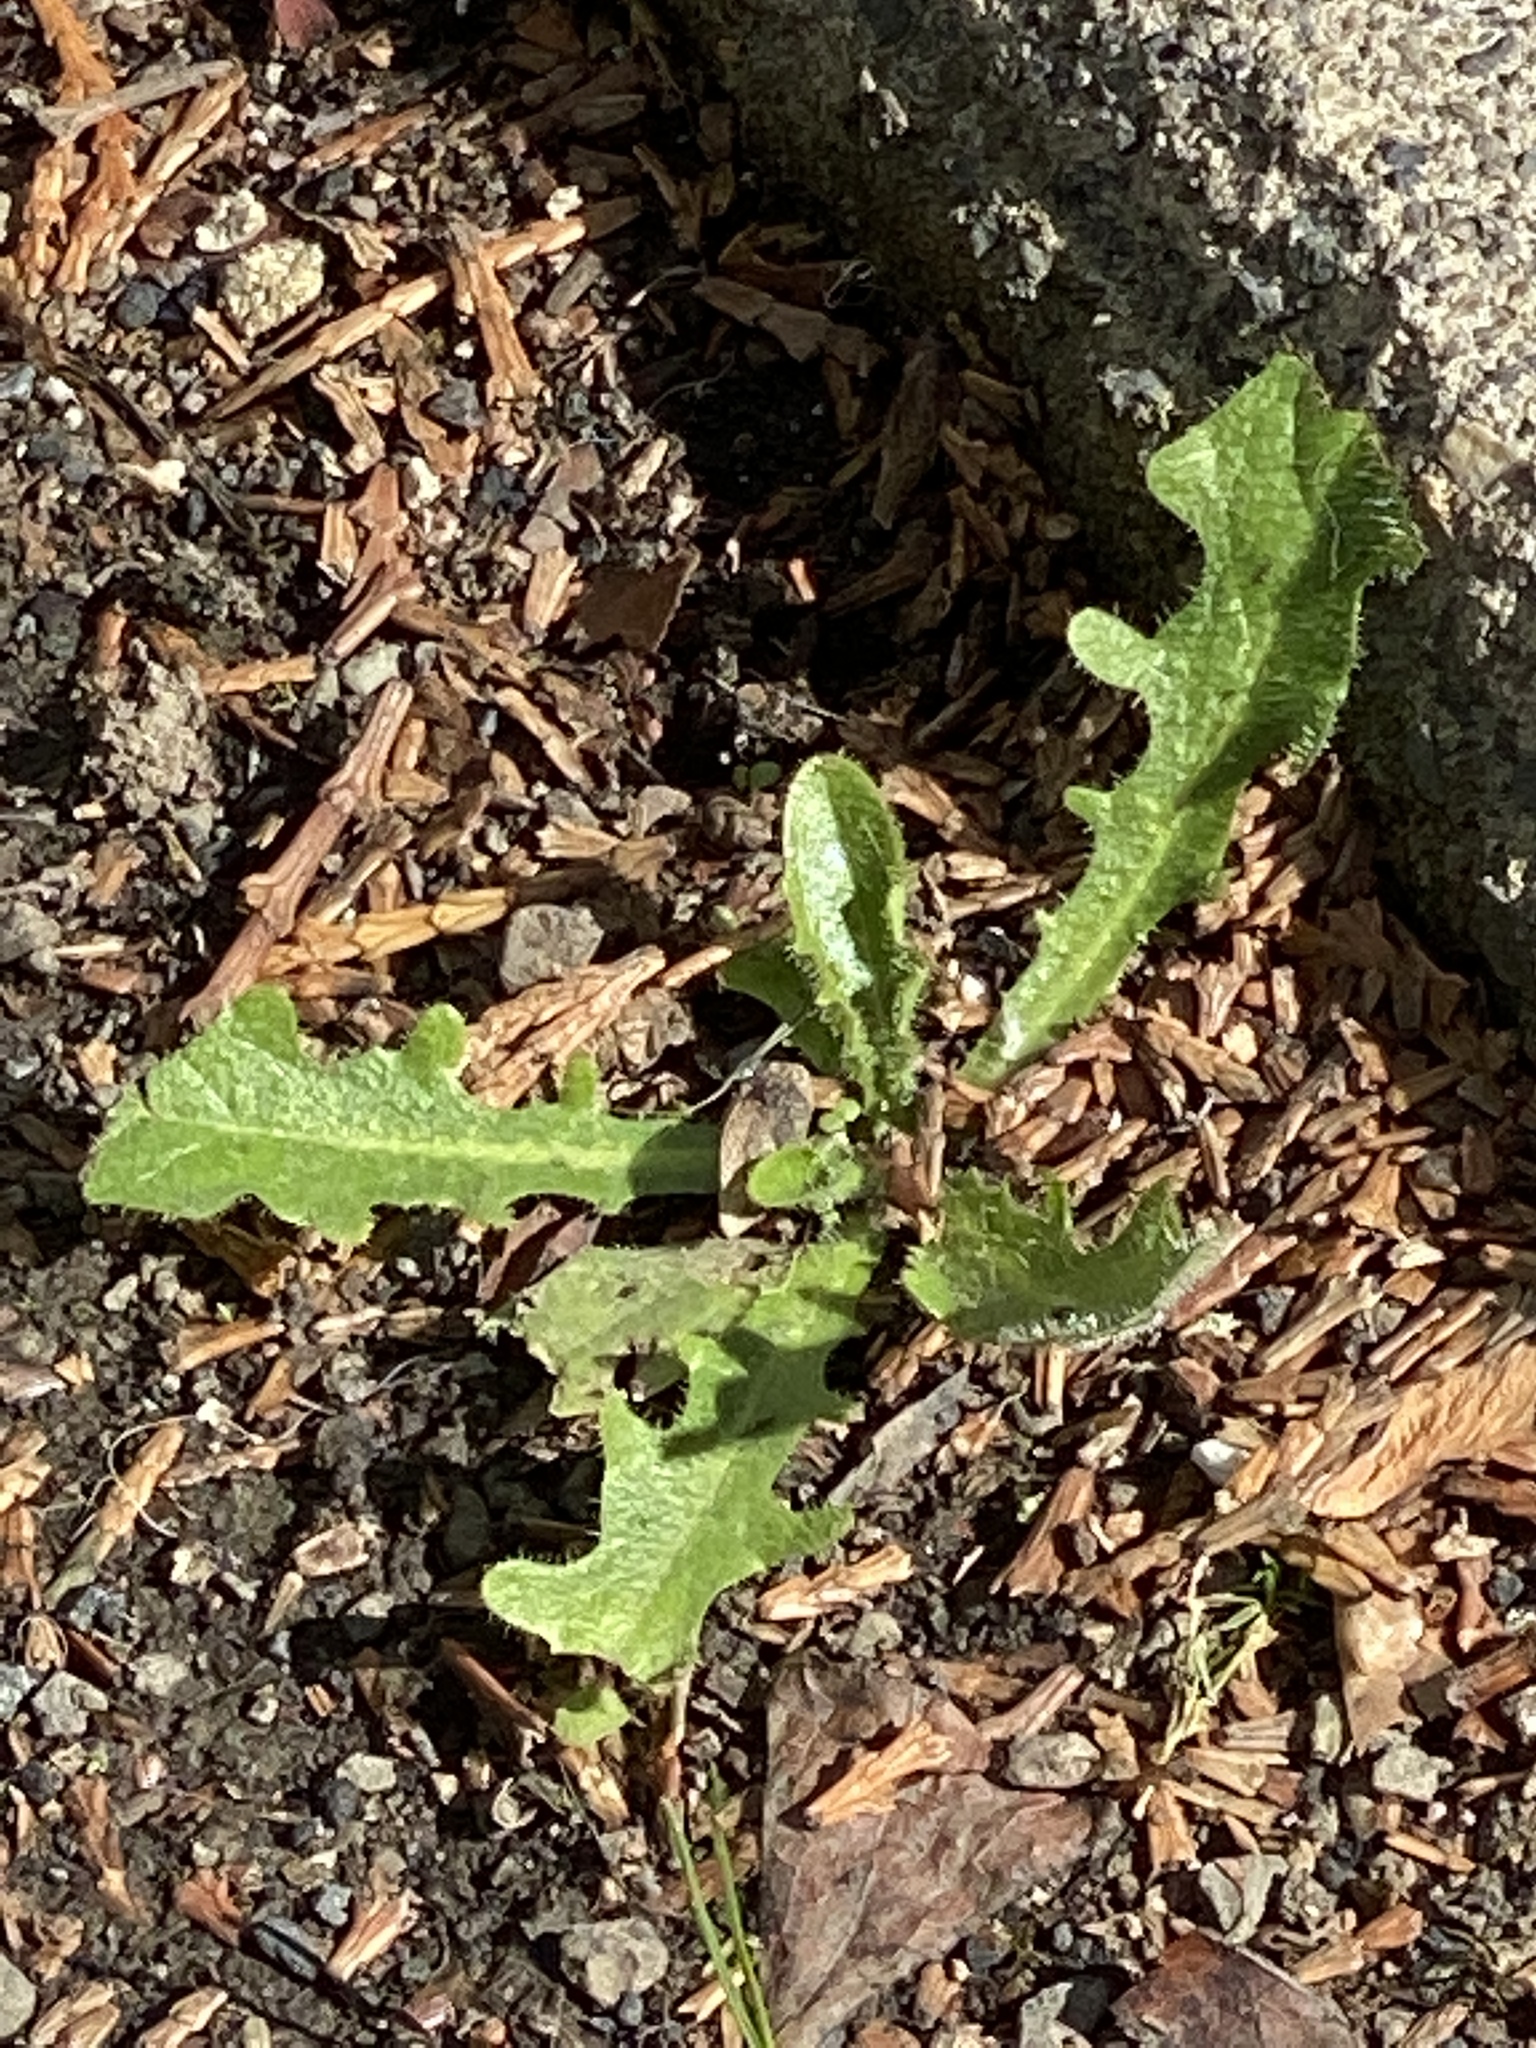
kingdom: Plantae
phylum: Tracheophyta
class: Magnoliopsida
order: Asterales
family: Asteraceae
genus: Hypochaeris
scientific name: Hypochaeris radicata
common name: Flatweed
